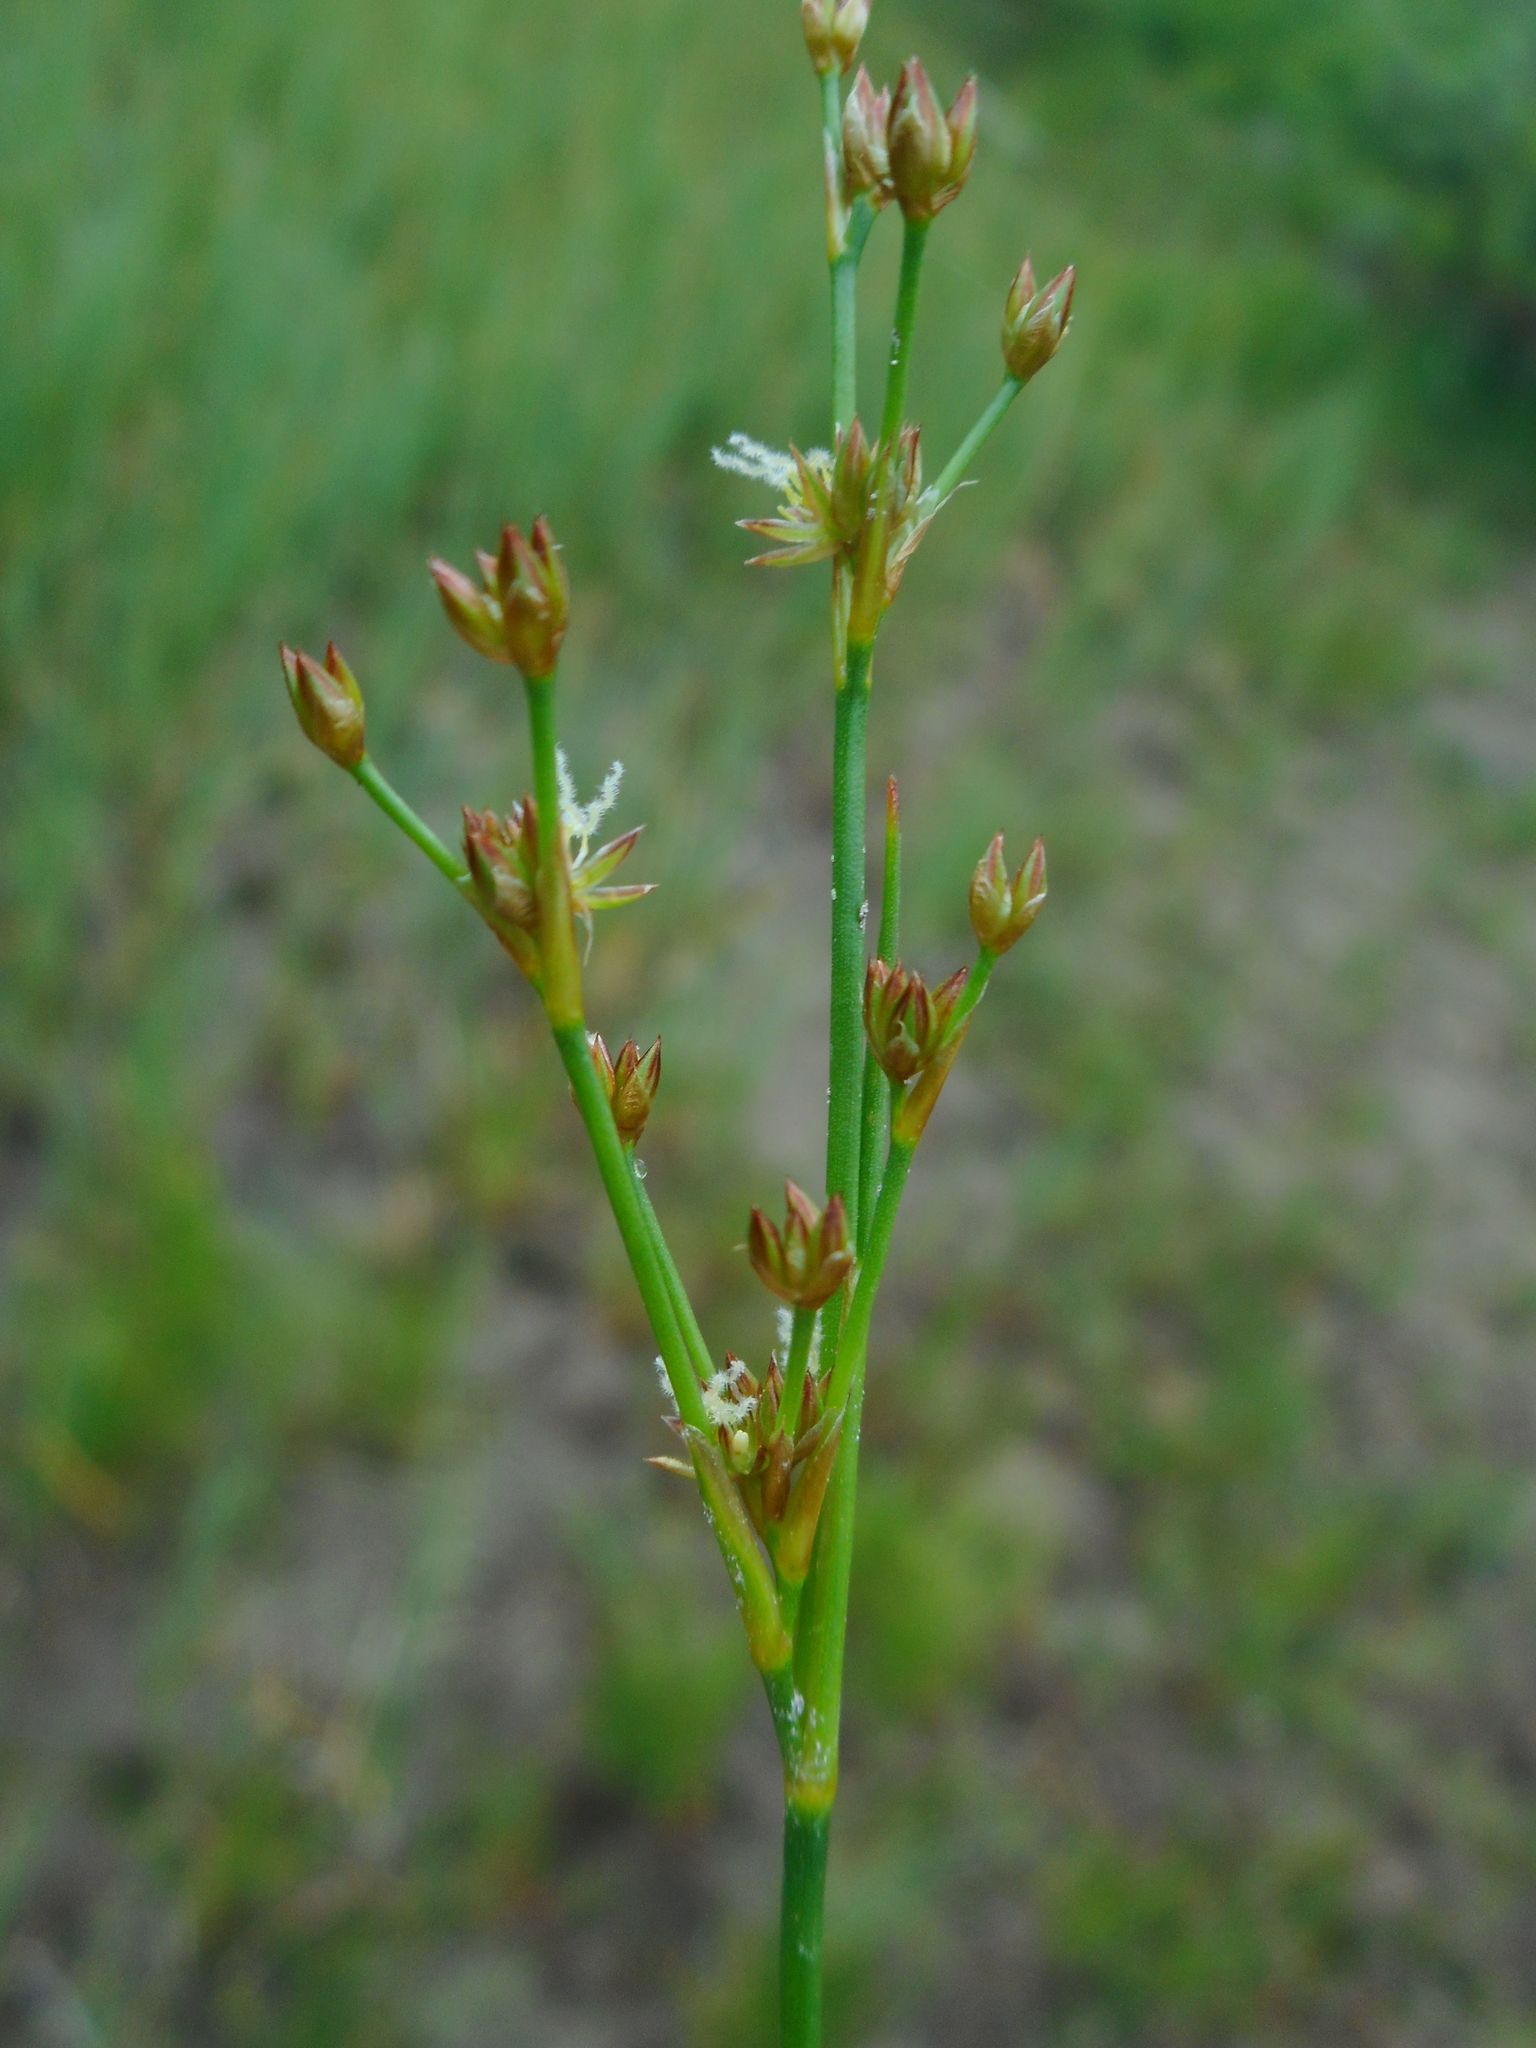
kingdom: Plantae
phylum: Tracheophyta
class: Liliopsida
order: Poales
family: Juncaceae
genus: Juncus
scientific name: Juncus articulatus
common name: Jointed rush
